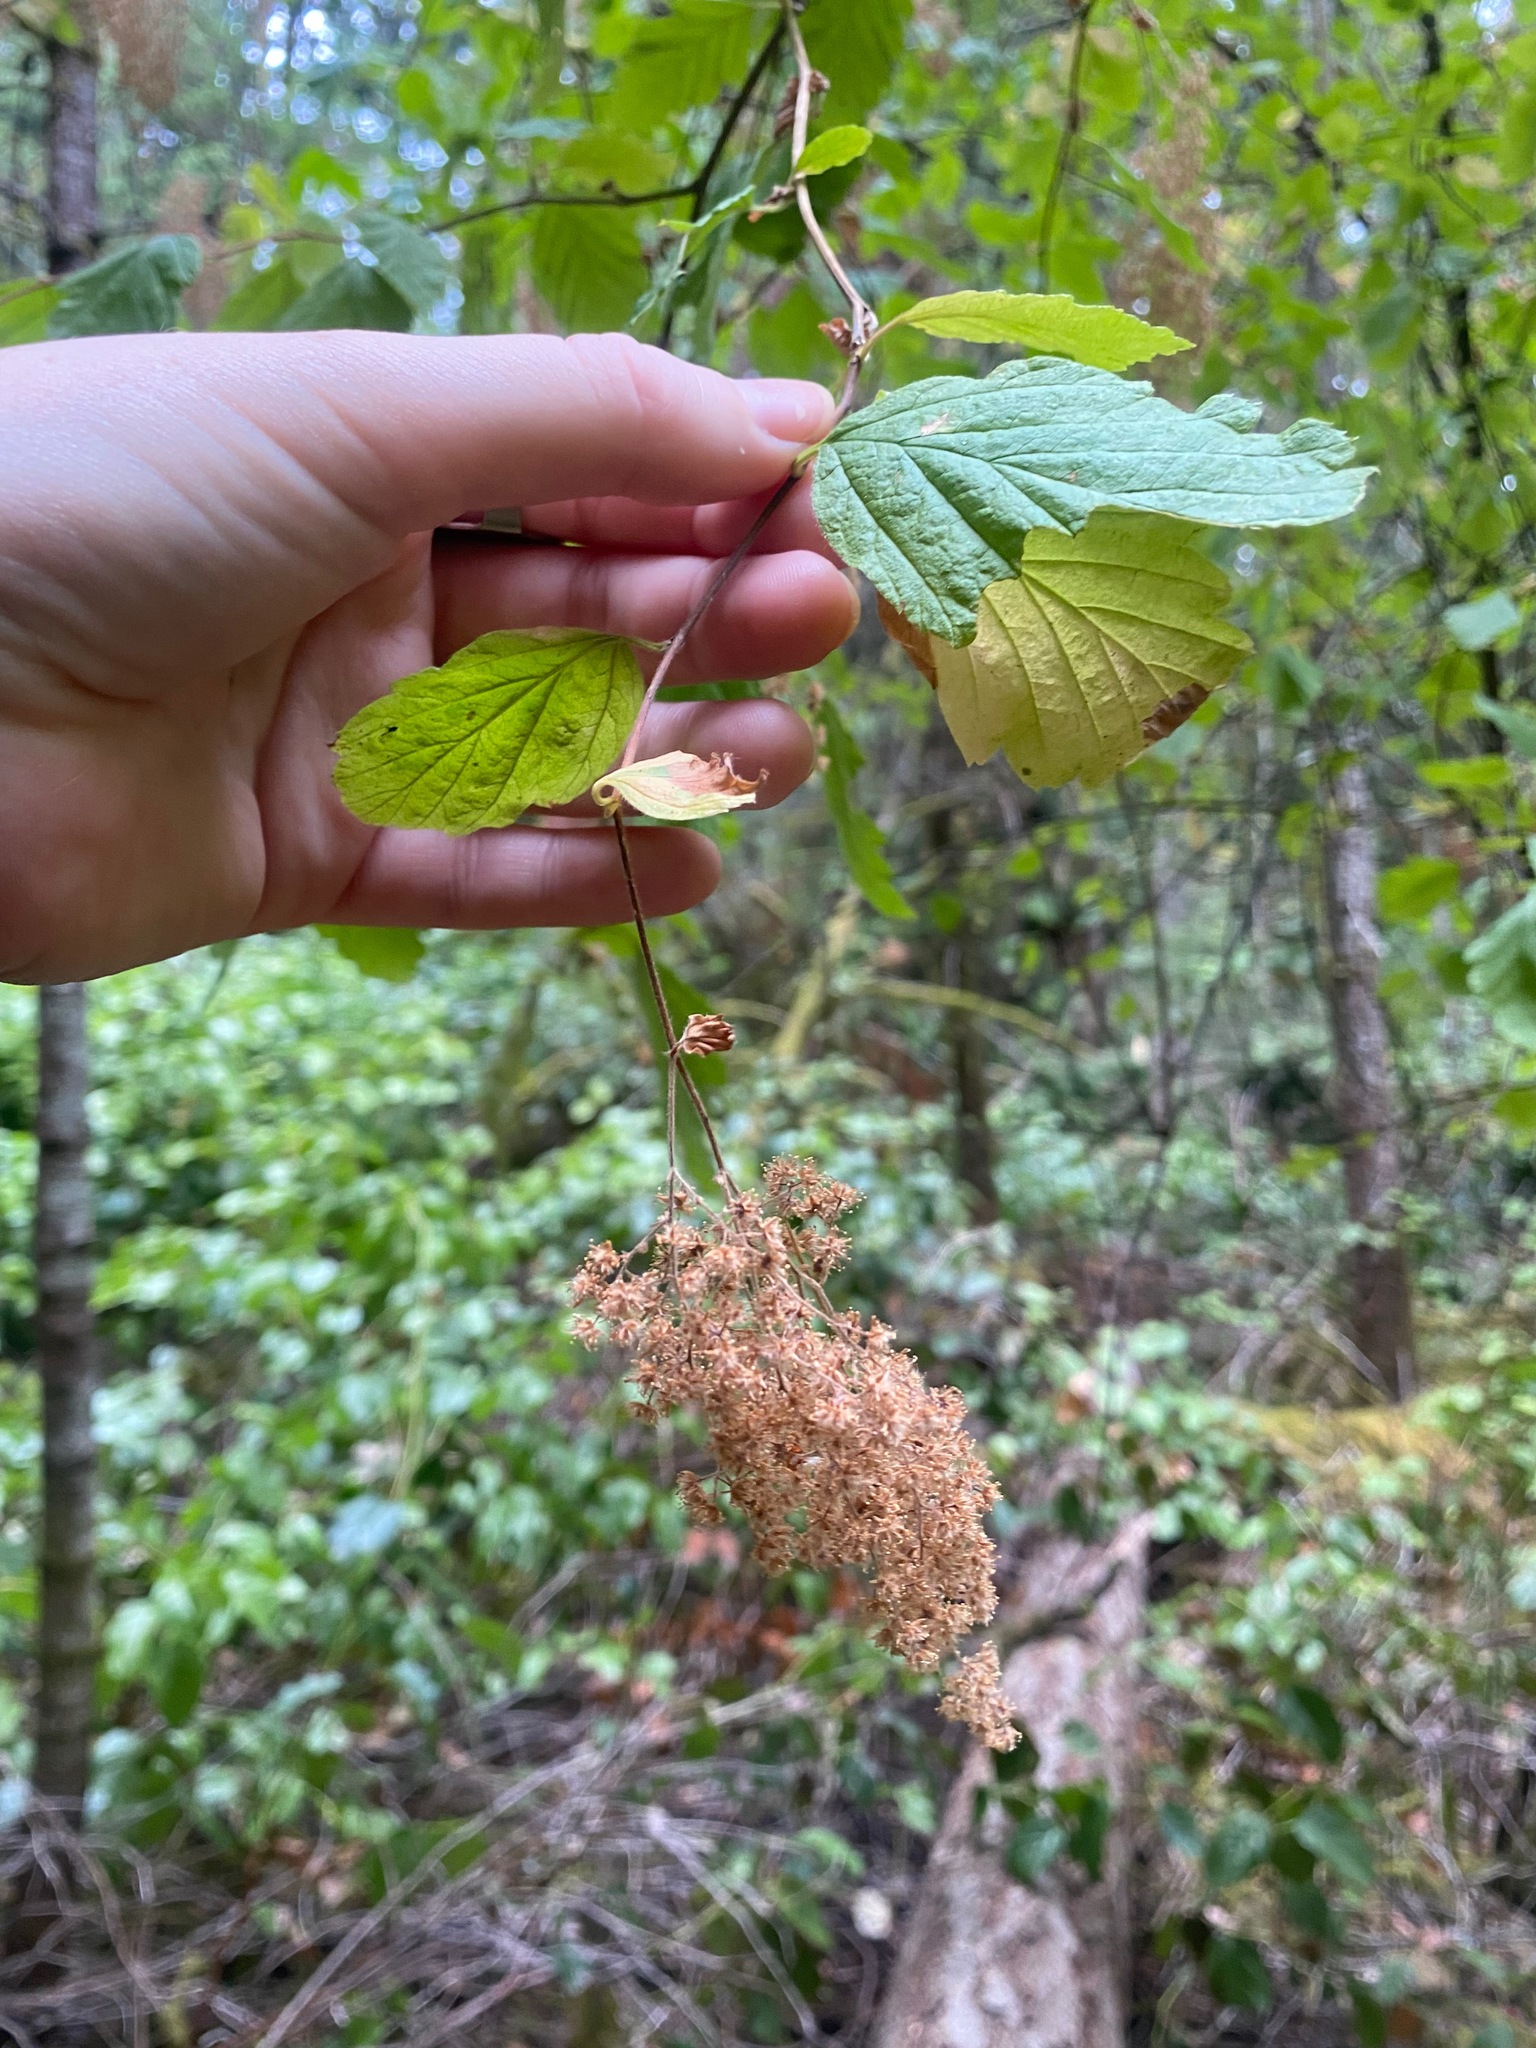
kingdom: Plantae
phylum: Tracheophyta
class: Magnoliopsida
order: Rosales
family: Rosaceae
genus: Holodiscus
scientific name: Holodiscus discolor
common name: Oceanspray
